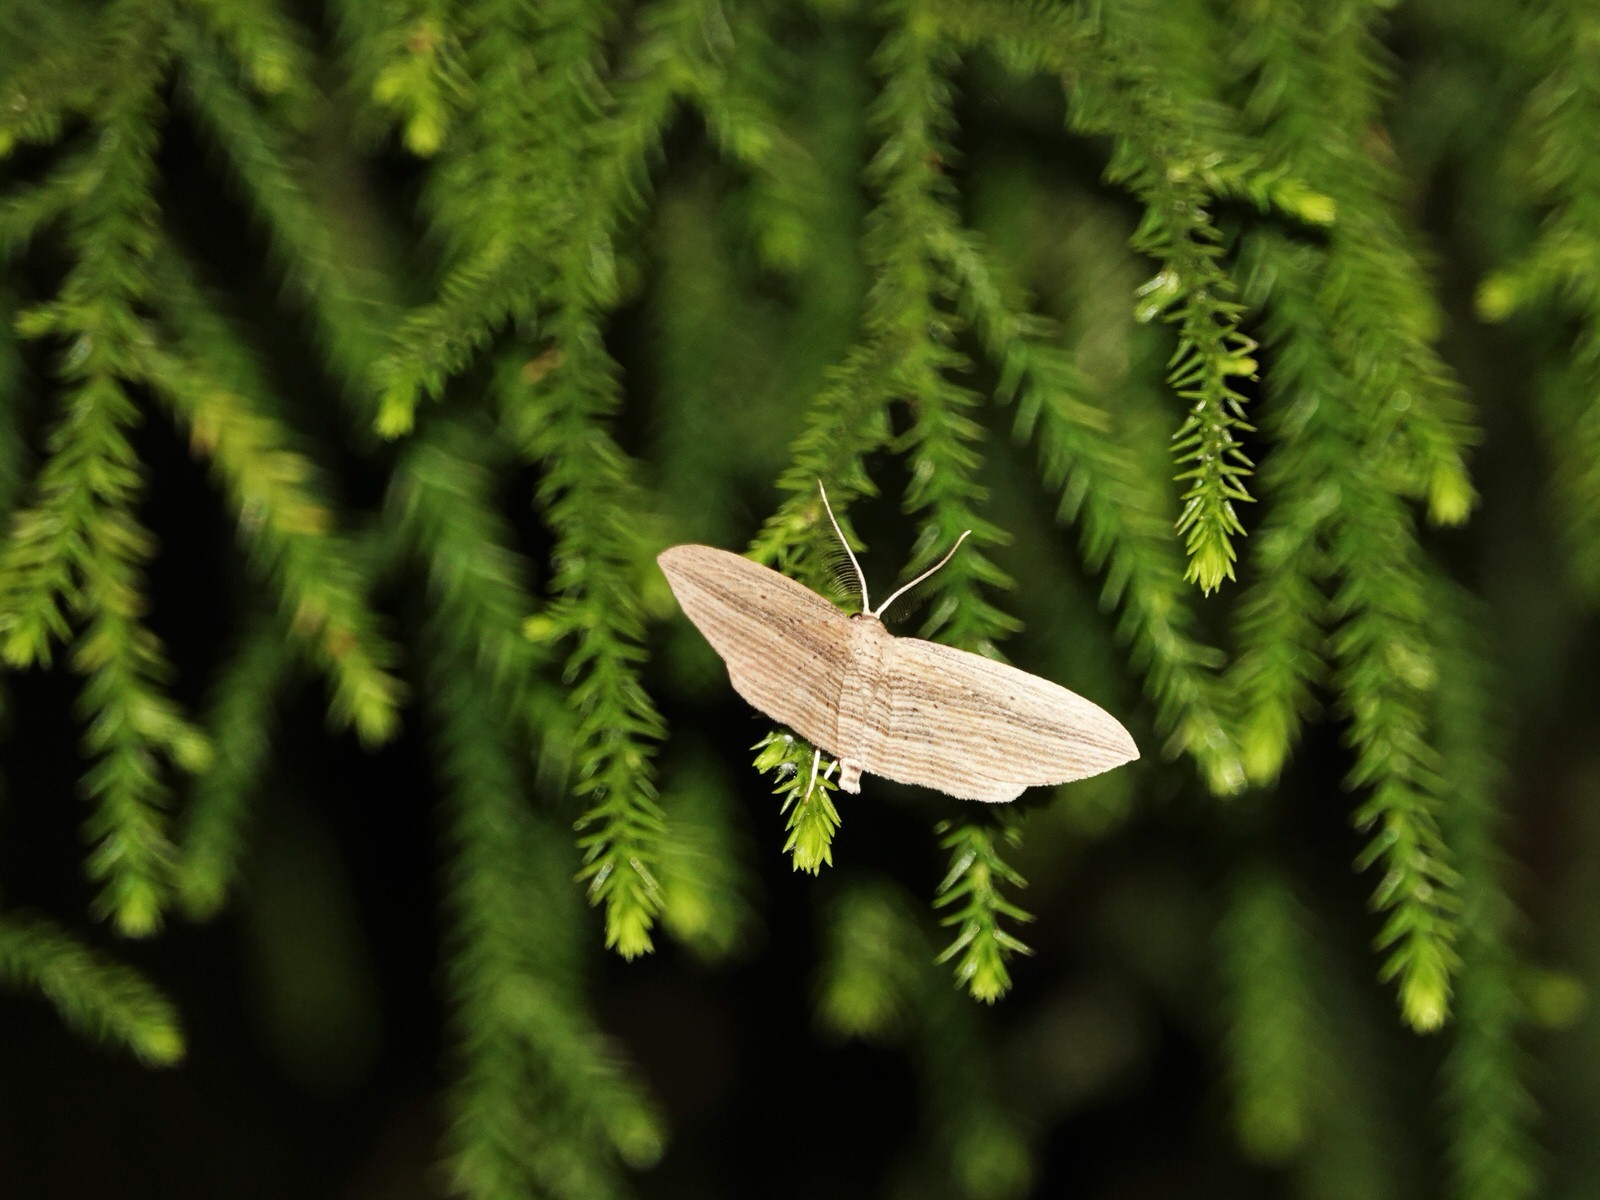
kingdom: Animalia
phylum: Arthropoda
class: Insecta
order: Lepidoptera
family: Geometridae
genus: Epiphryne
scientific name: Epiphryne verriculata
